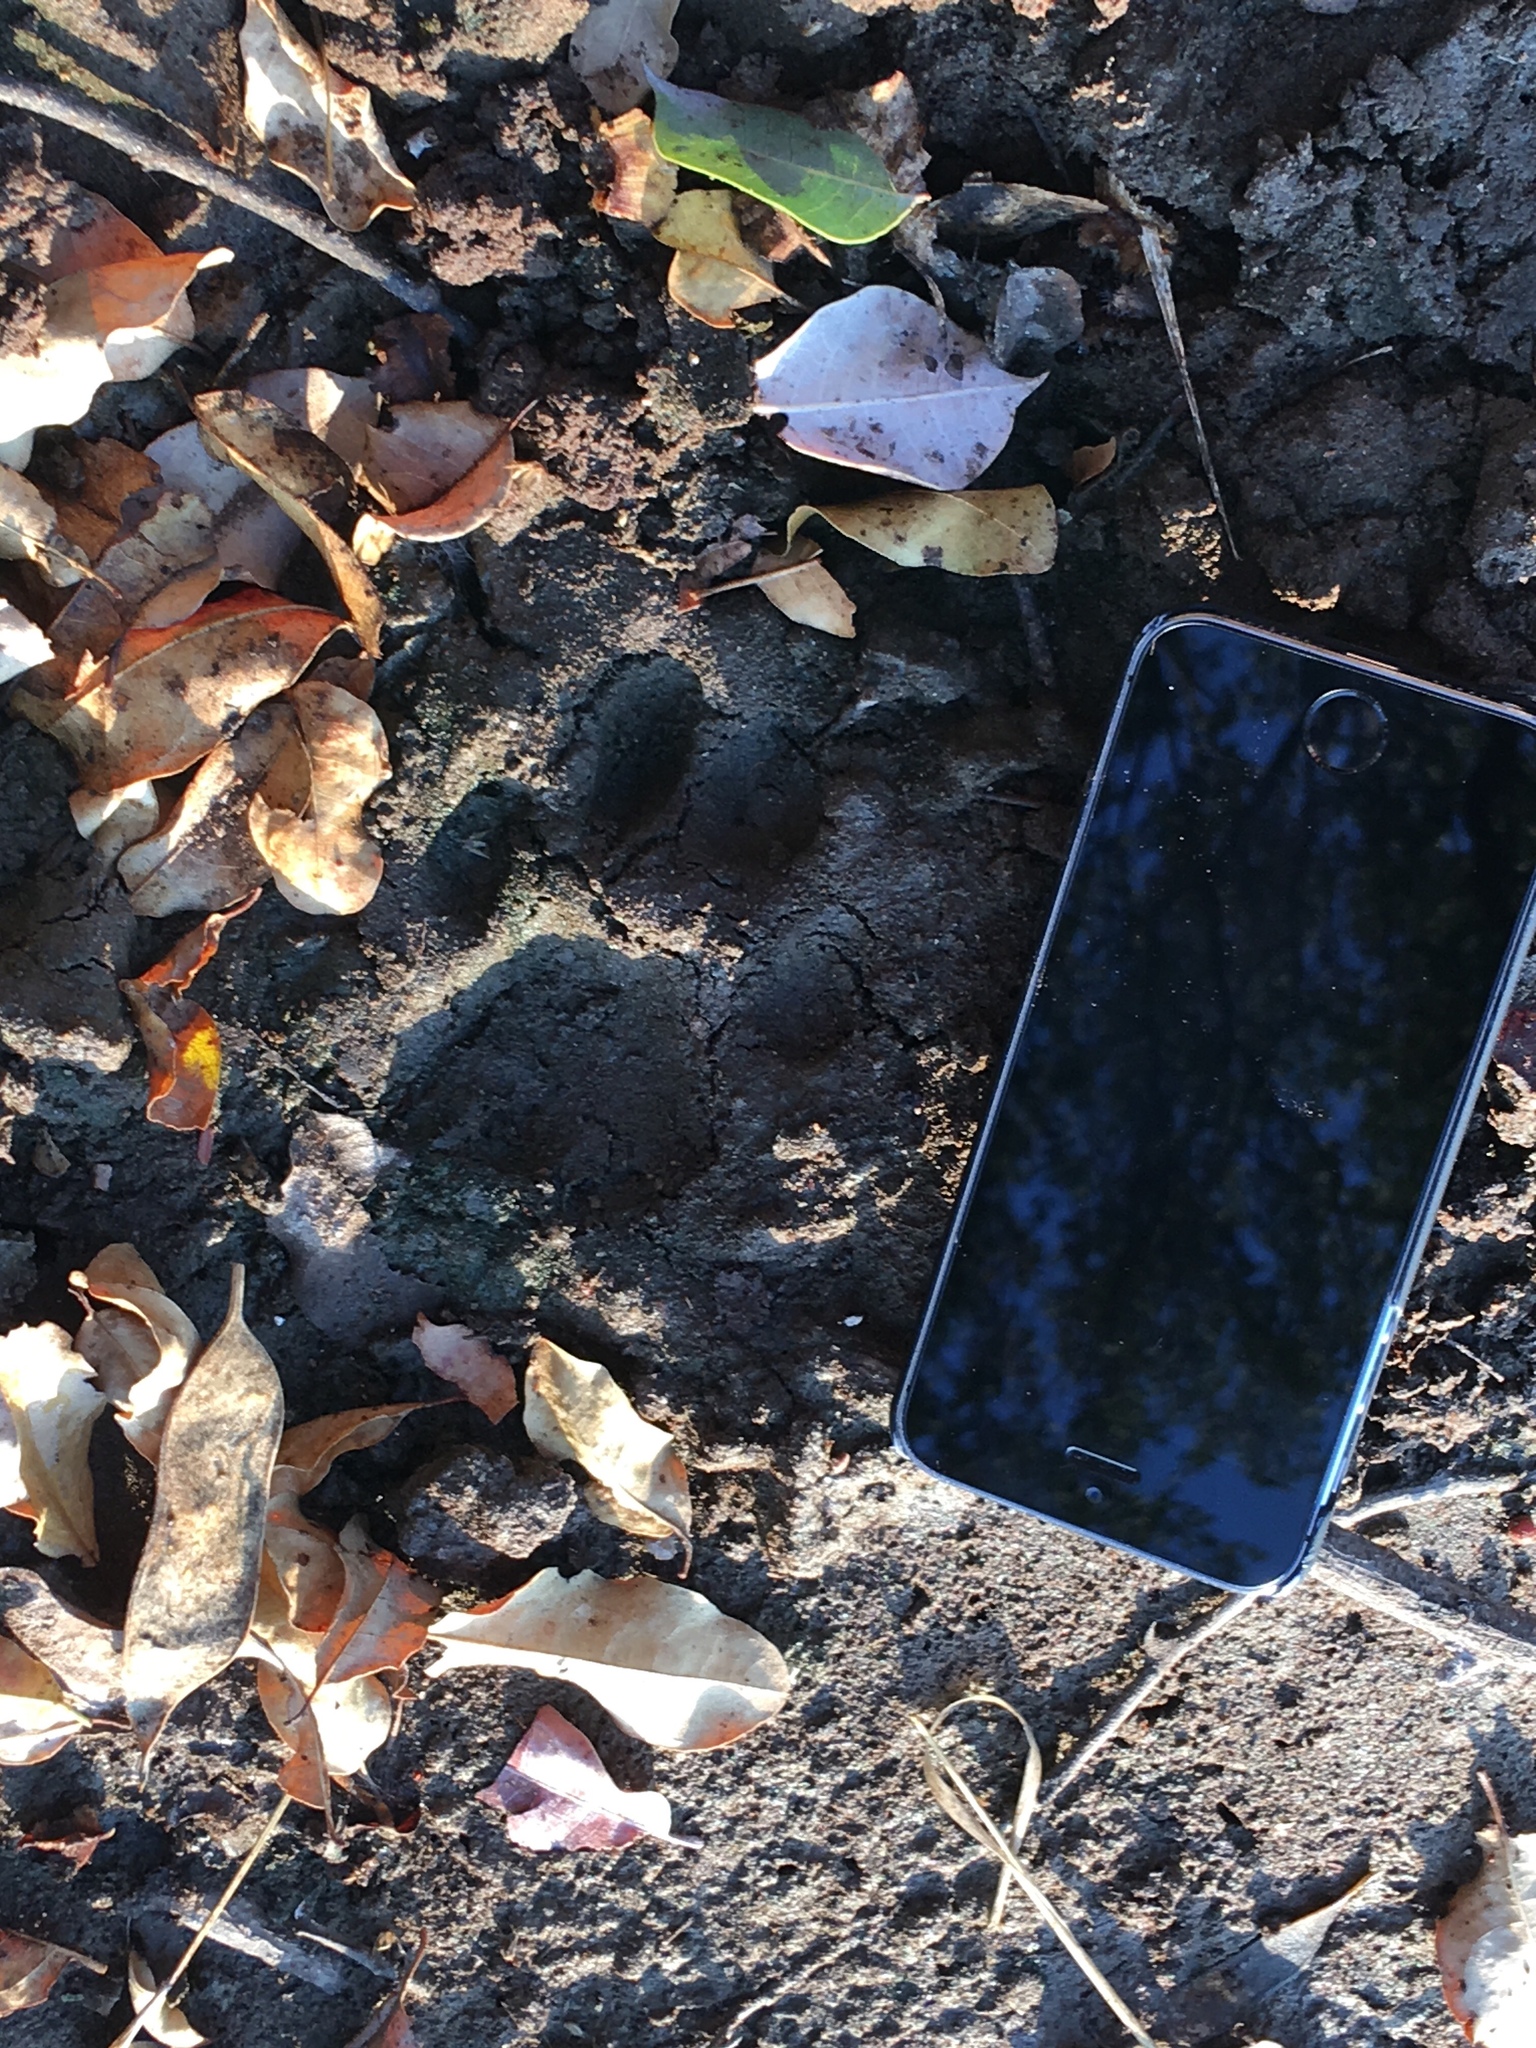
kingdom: Animalia
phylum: Chordata
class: Mammalia
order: Carnivora
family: Felidae
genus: Panthera
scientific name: Panthera pardus
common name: Leopard
